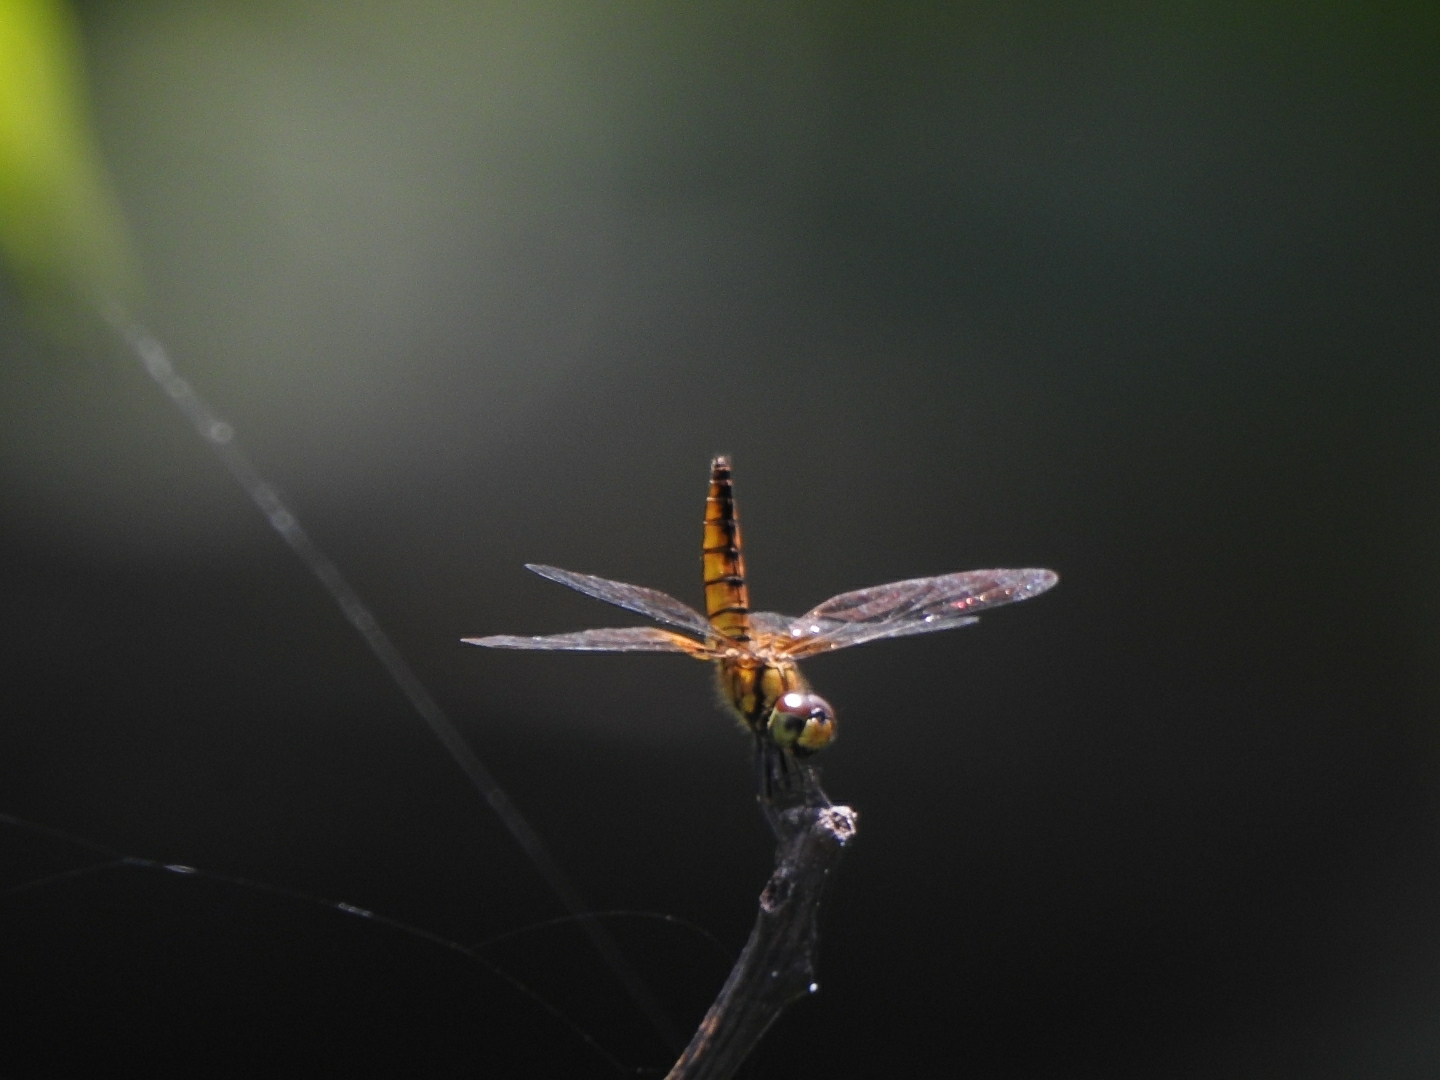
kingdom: Animalia
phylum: Arthropoda
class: Insecta
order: Odonata
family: Libellulidae
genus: Aethriamanta
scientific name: Aethriamanta brevipennis
